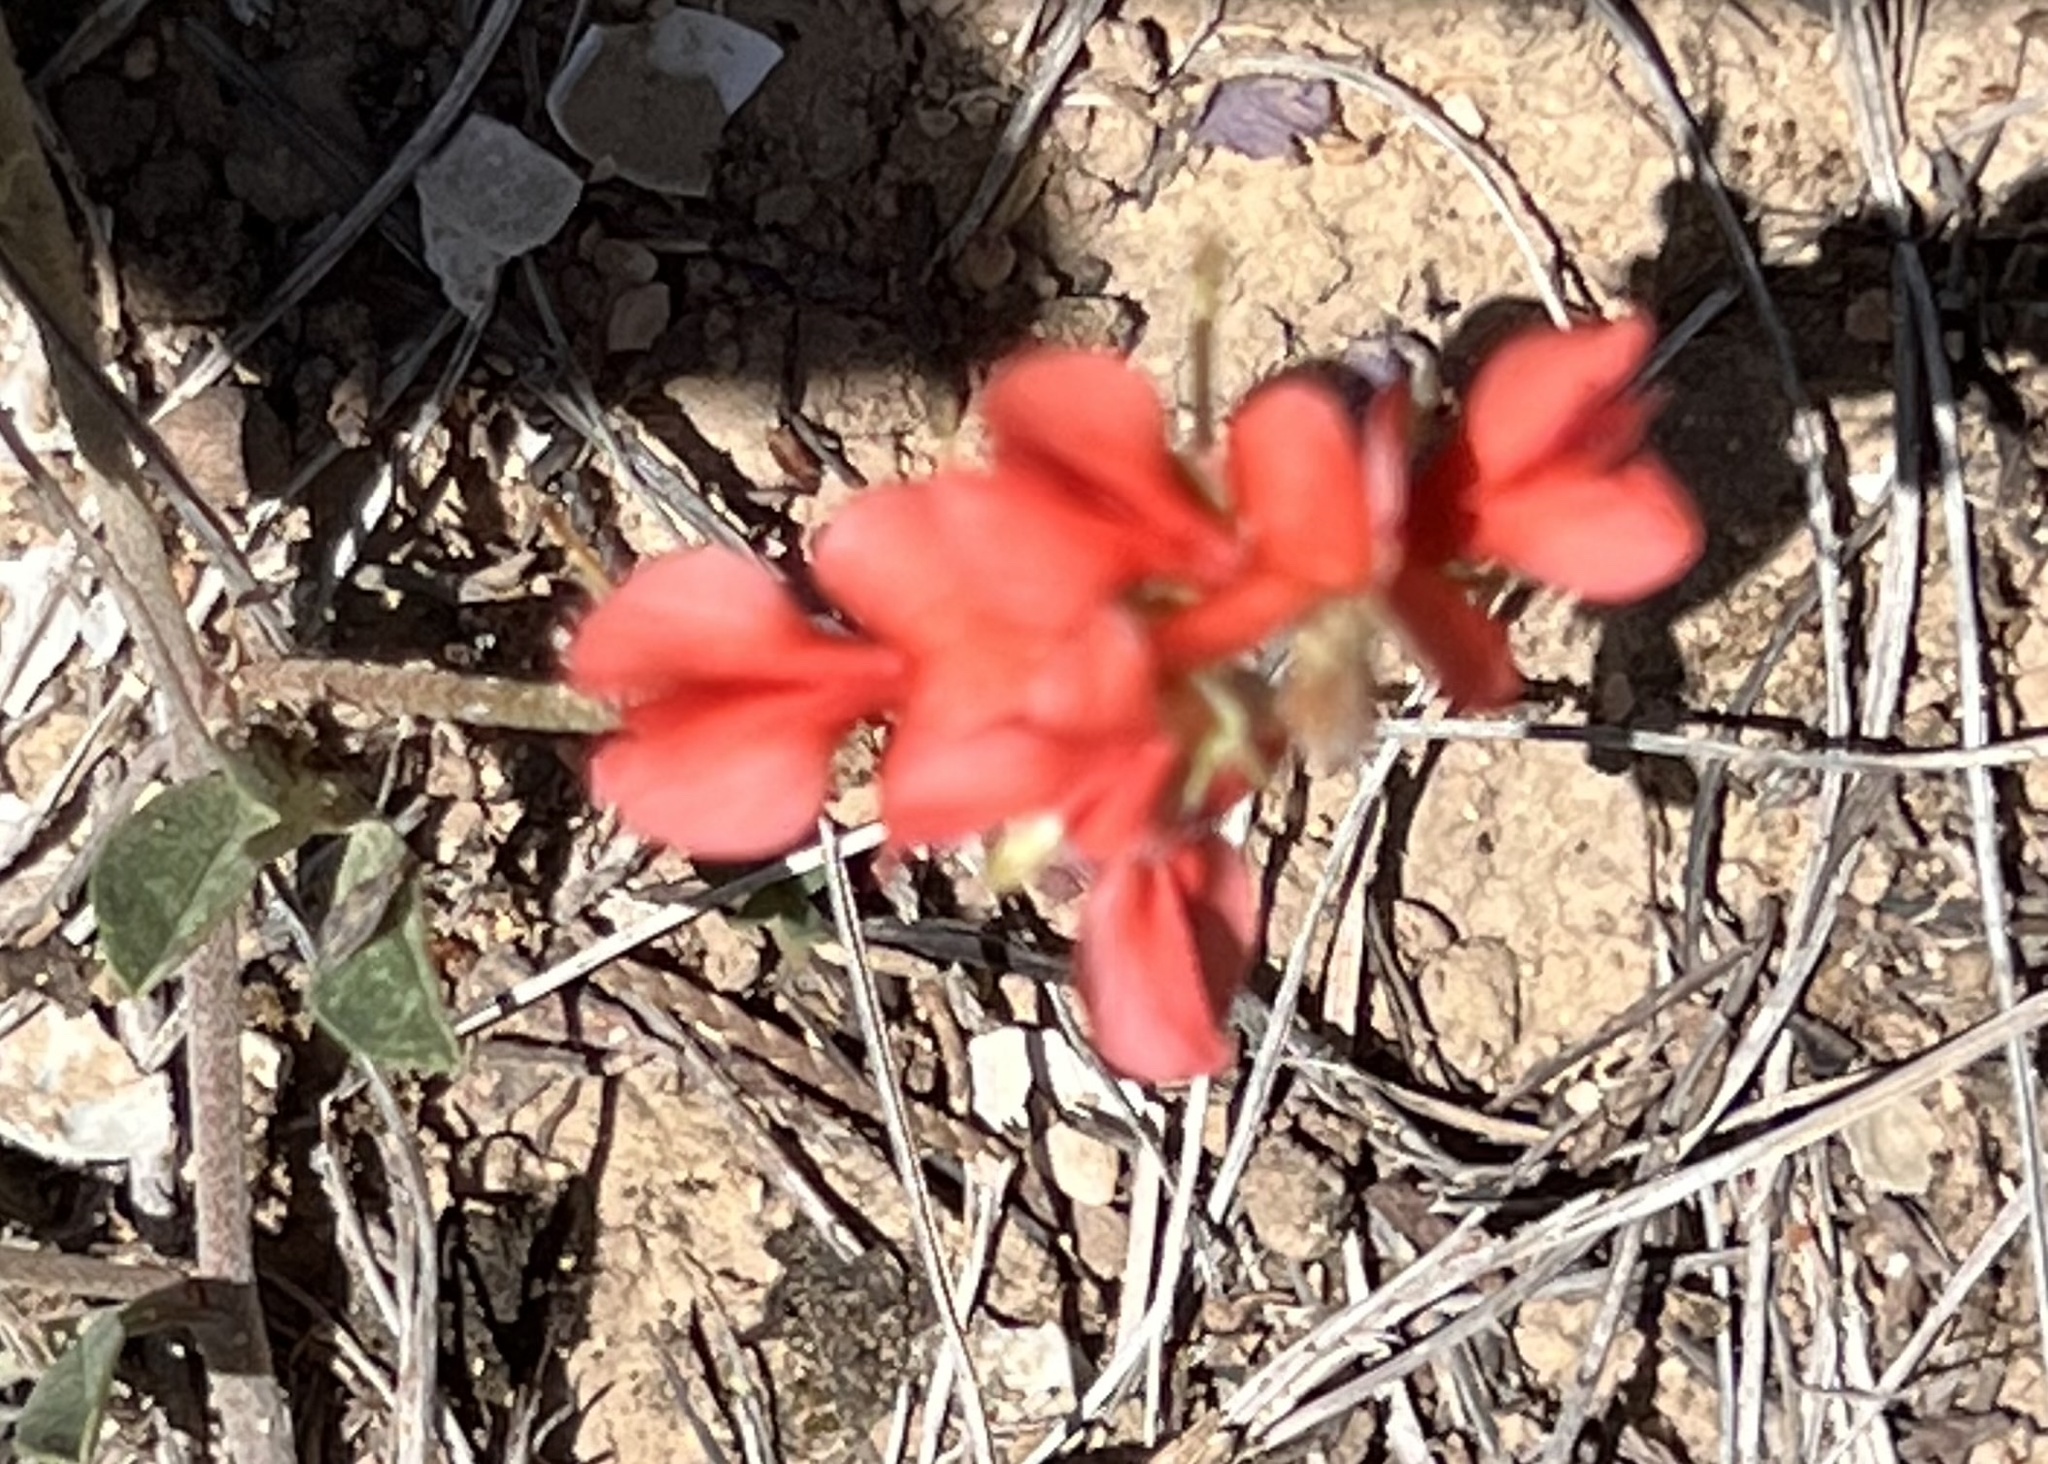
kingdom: Plantae
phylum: Tracheophyta
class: Magnoliopsida
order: Fabales
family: Fabaceae
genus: Indigofera
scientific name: Indigofera miniata
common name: Coast indigo
